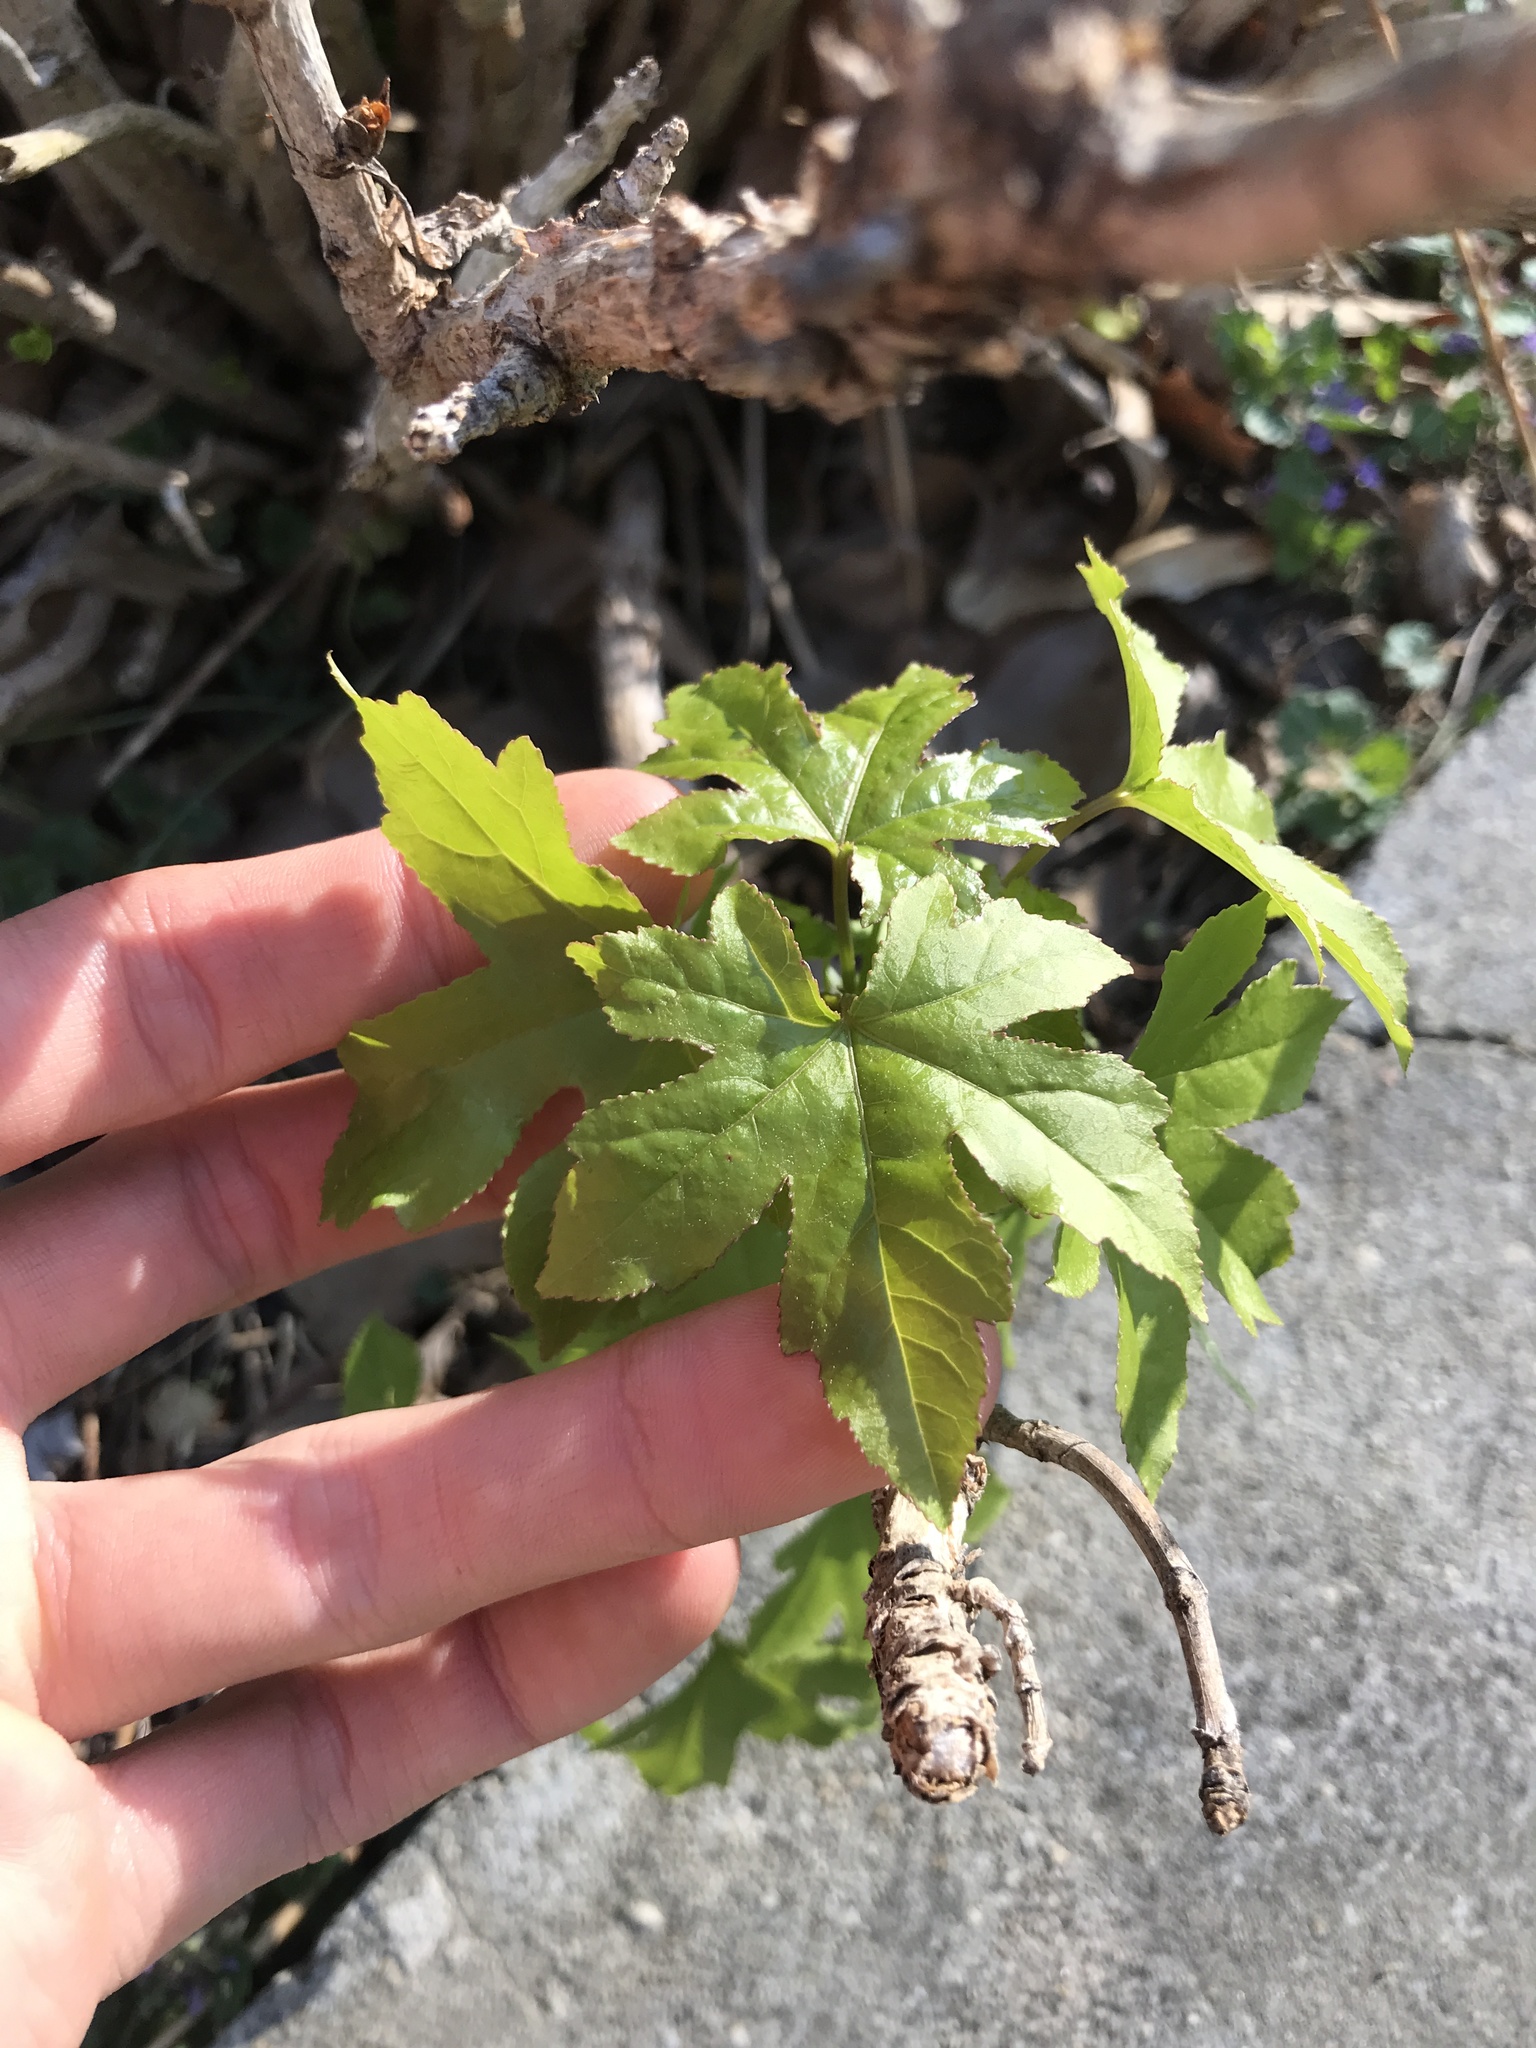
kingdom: Plantae
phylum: Tracheophyta
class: Magnoliopsida
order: Saxifragales
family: Altingiaceae
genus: Liquidambar
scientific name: Liquidambar styraciflua
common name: Sweet gum
